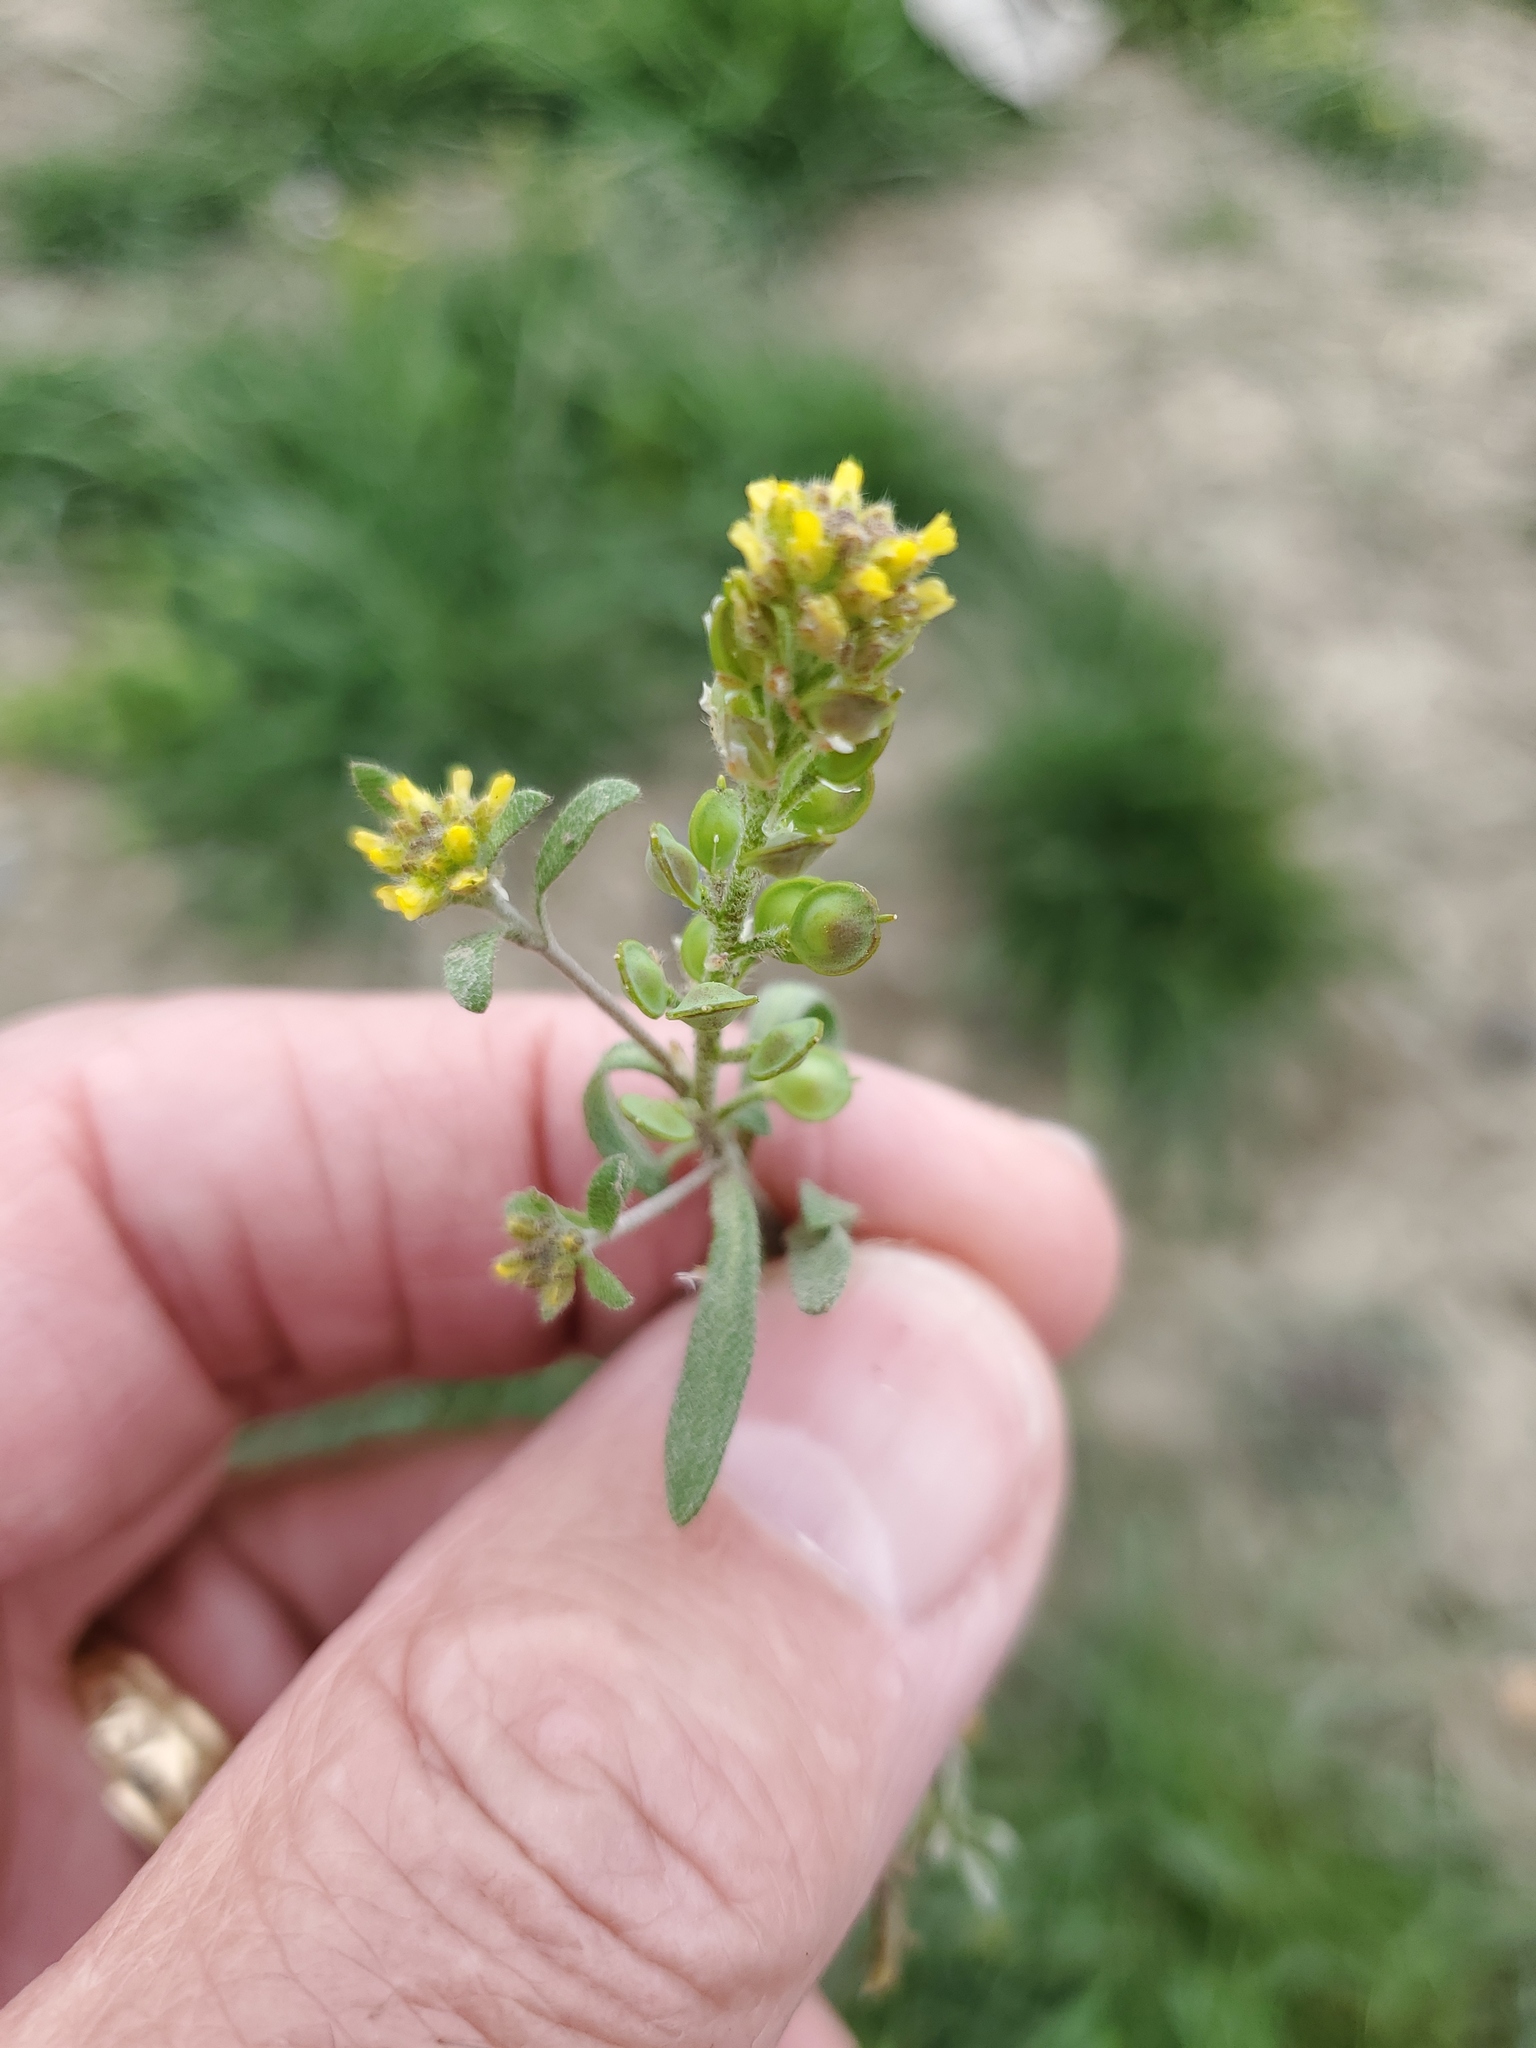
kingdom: Plantae
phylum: Tracheophyta
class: Magnoliopsida
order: Brassicales
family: Brassicaceae
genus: Alyssum
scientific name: Alyssum turkestanicum
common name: Desert alyssum
